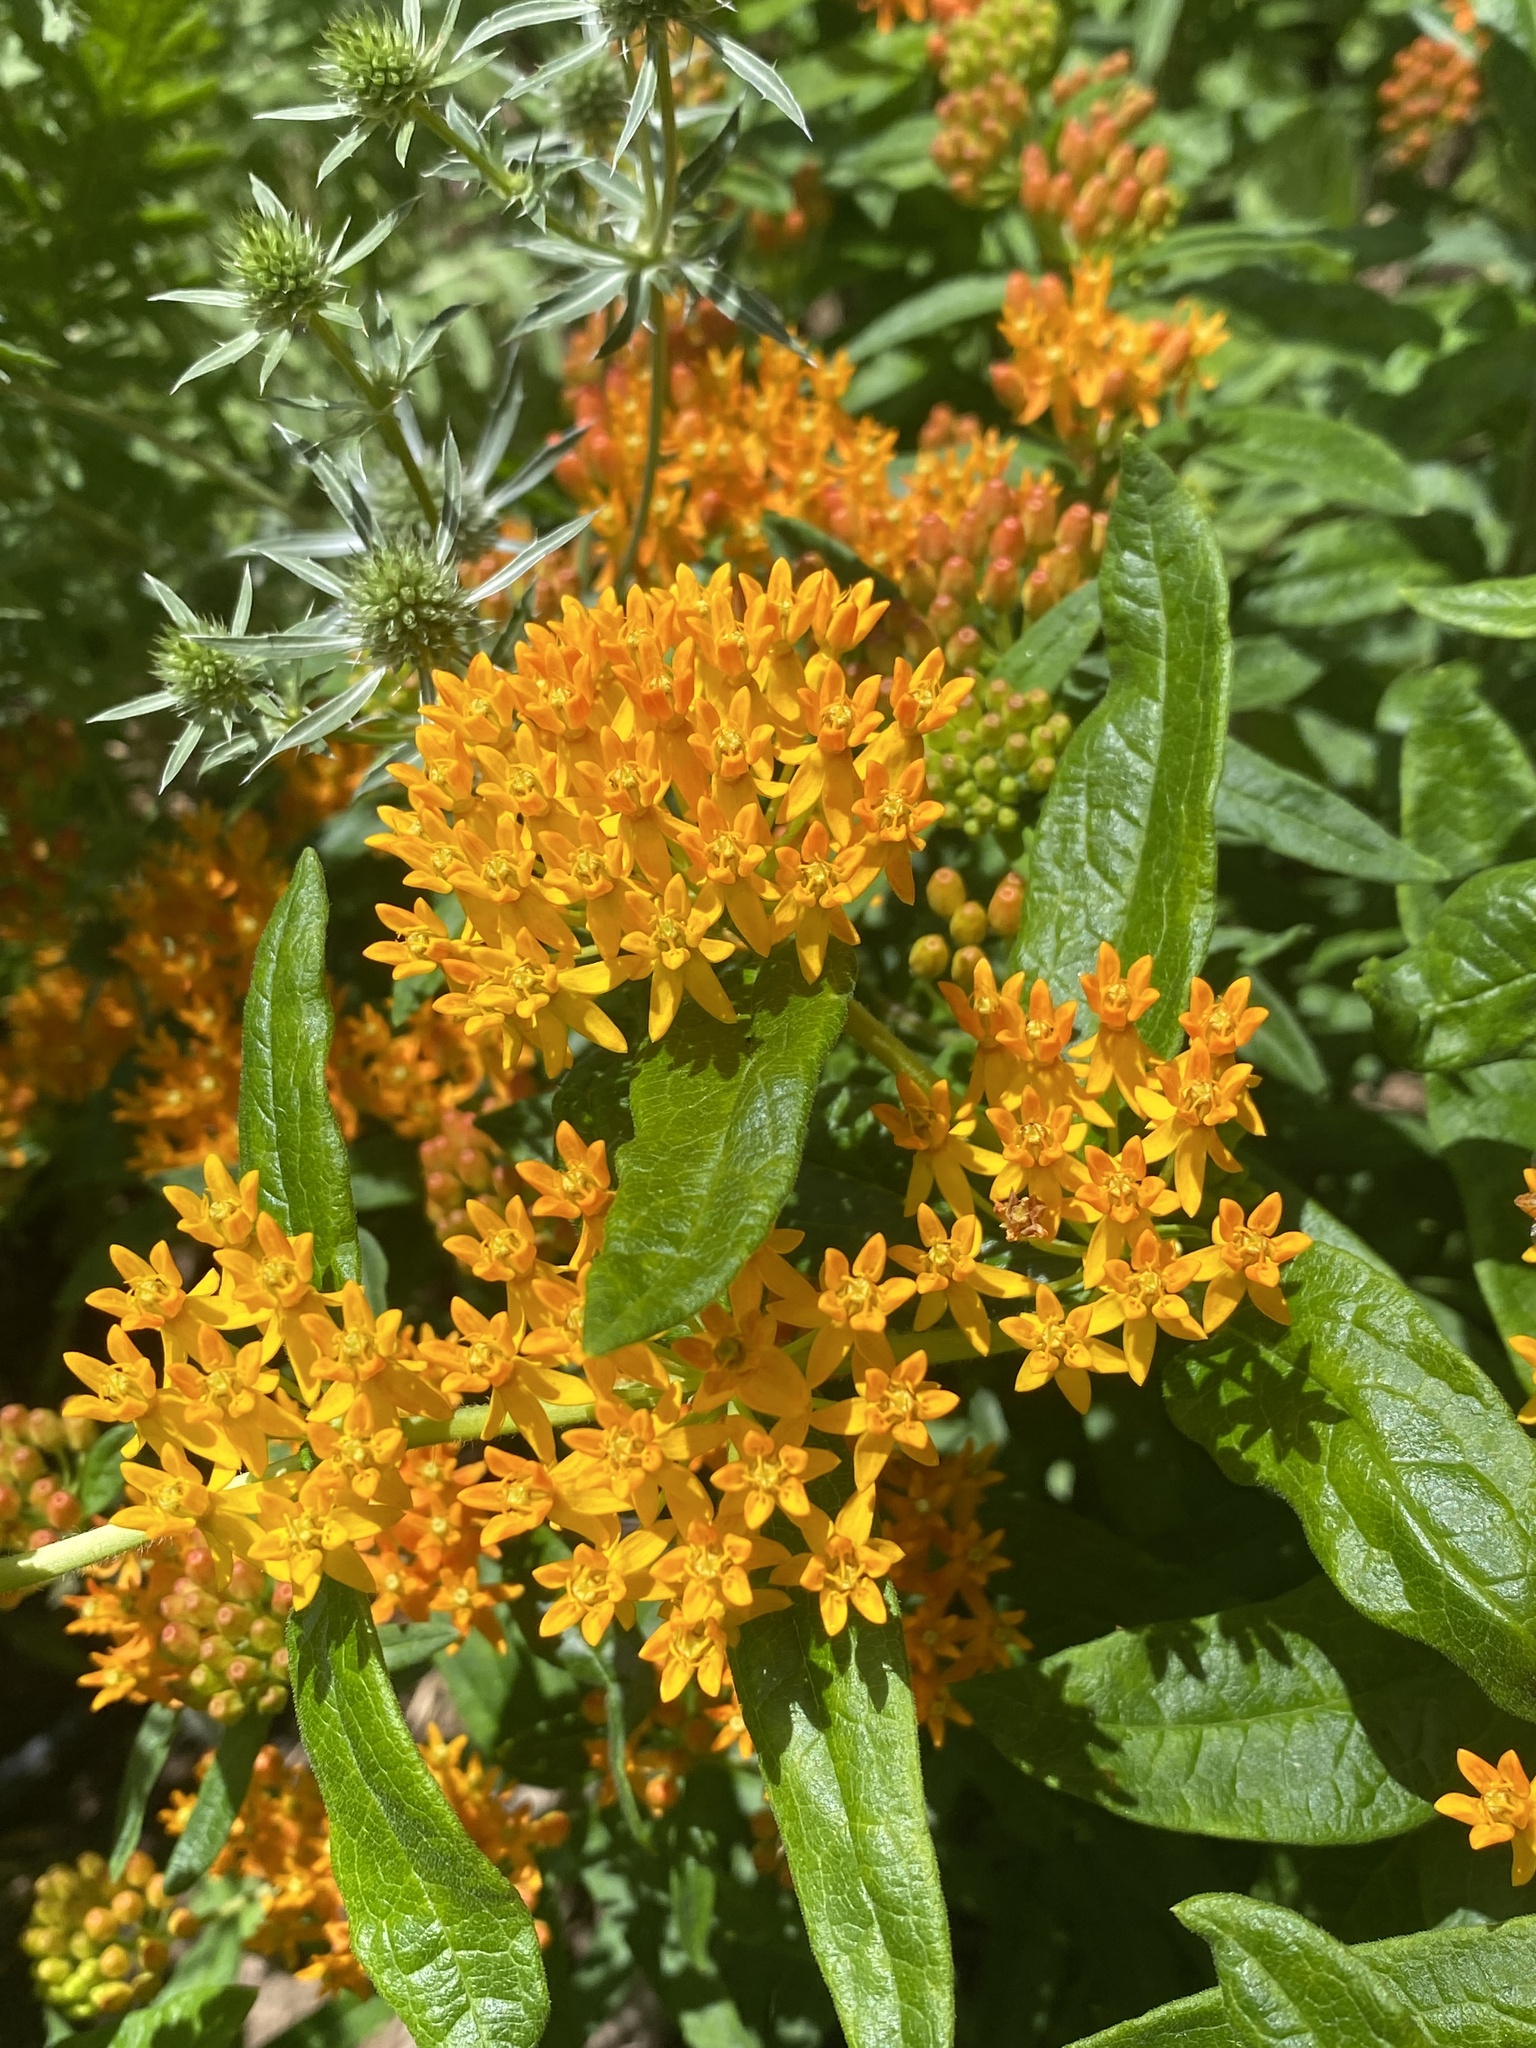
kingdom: Plantae
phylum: Tracheophyta
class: Magnoliopsida
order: Gentianales
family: Apocynaceae
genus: Asclepias
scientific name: Asclepias tuberosa
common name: Butterfly milkweed
